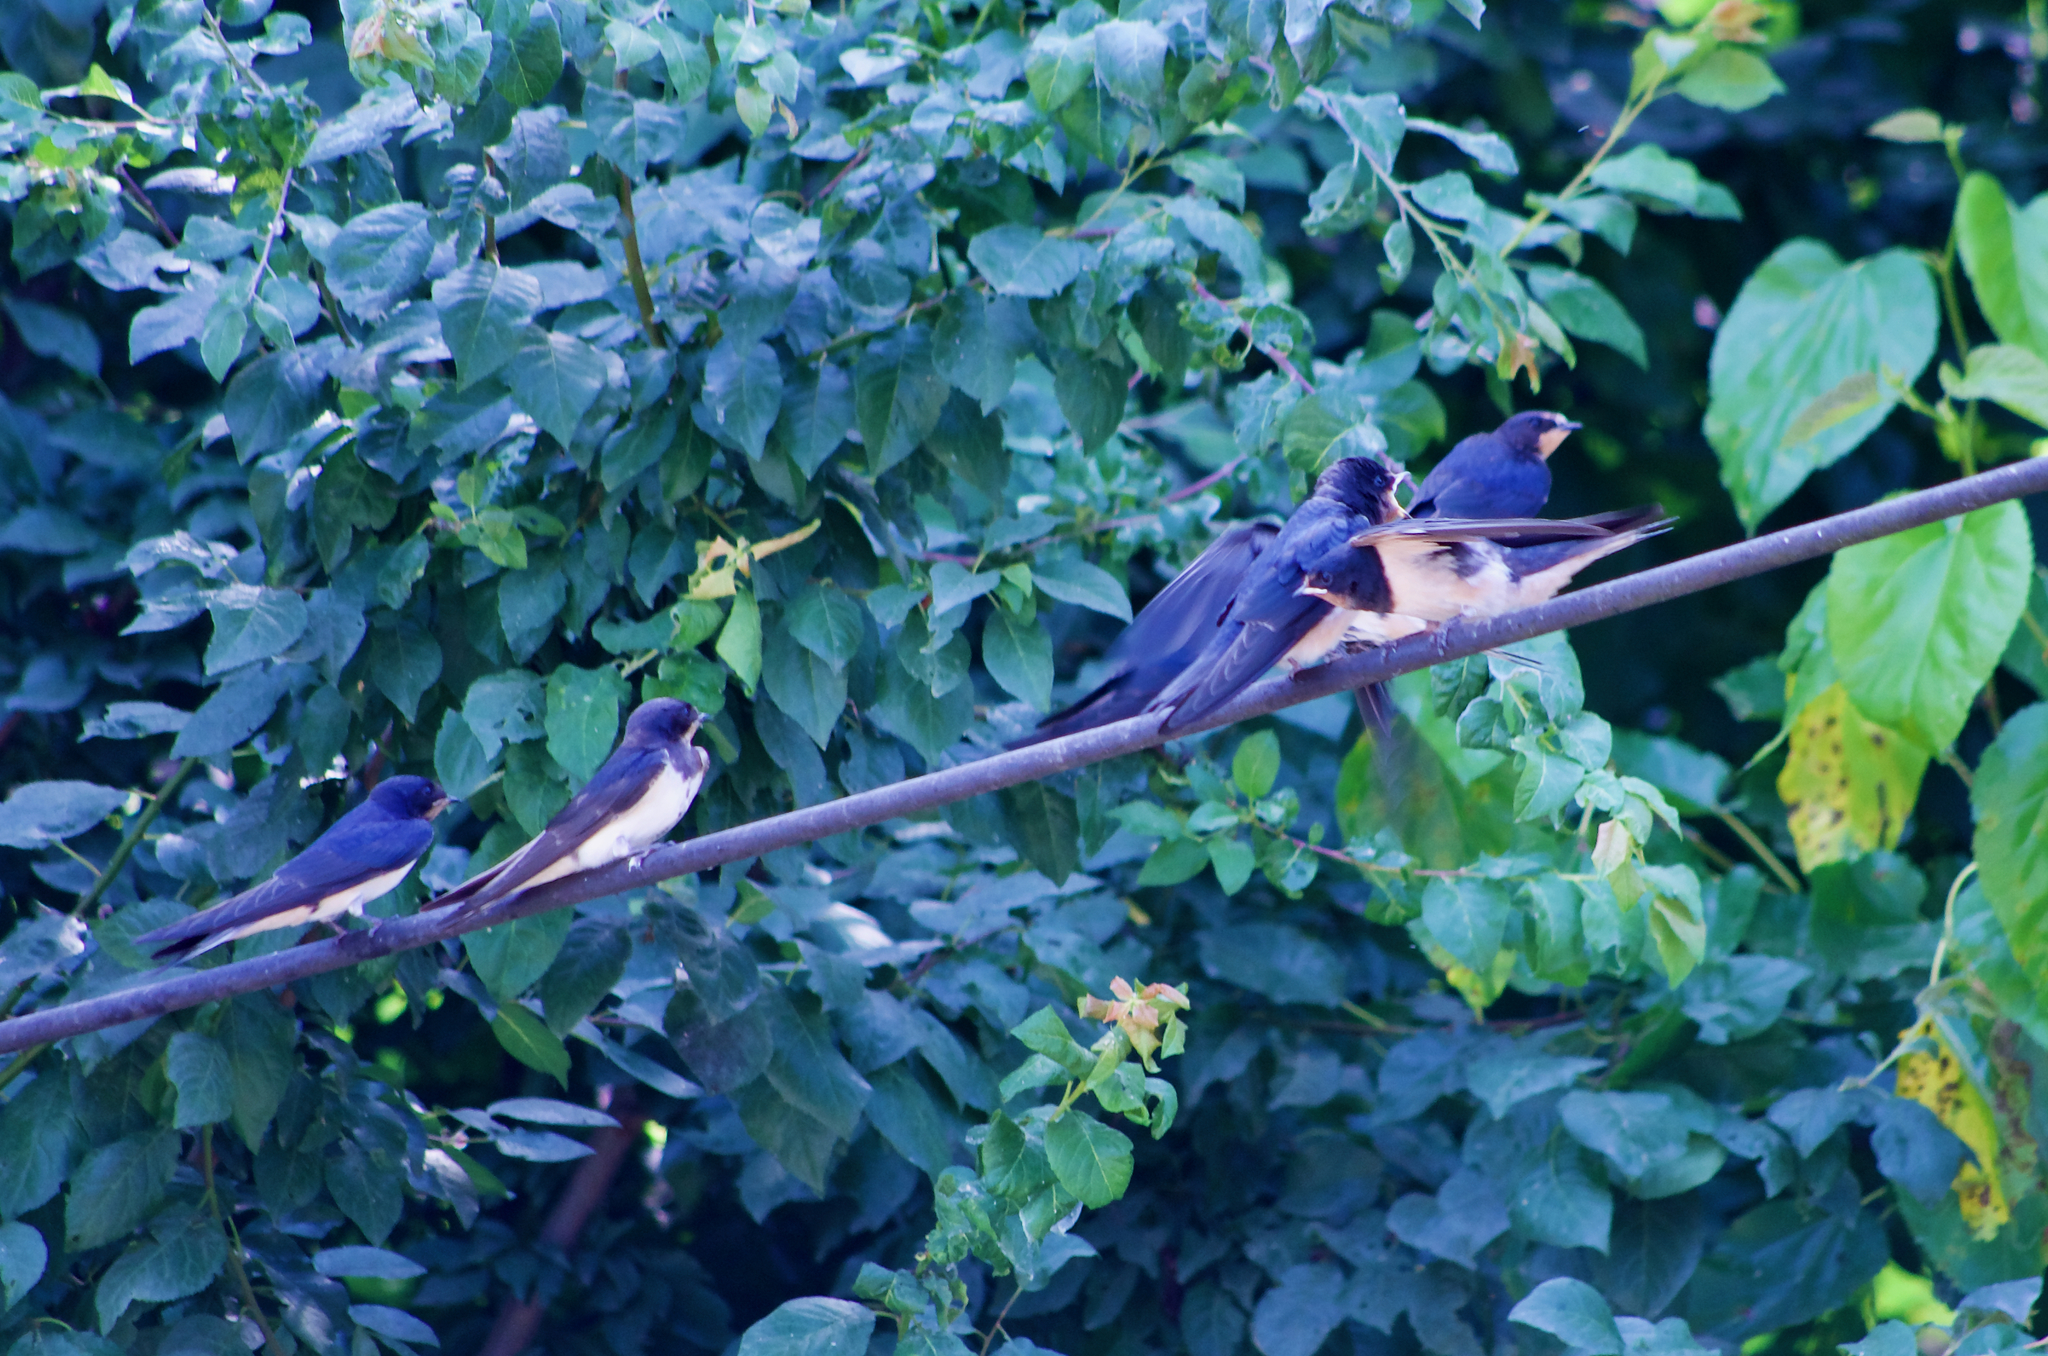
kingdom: Animalia
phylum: Chordata
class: Aves
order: Passeriformes
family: Hirundinidae
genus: Hirundo
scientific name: Hirundo rustica
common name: Barn swallow
